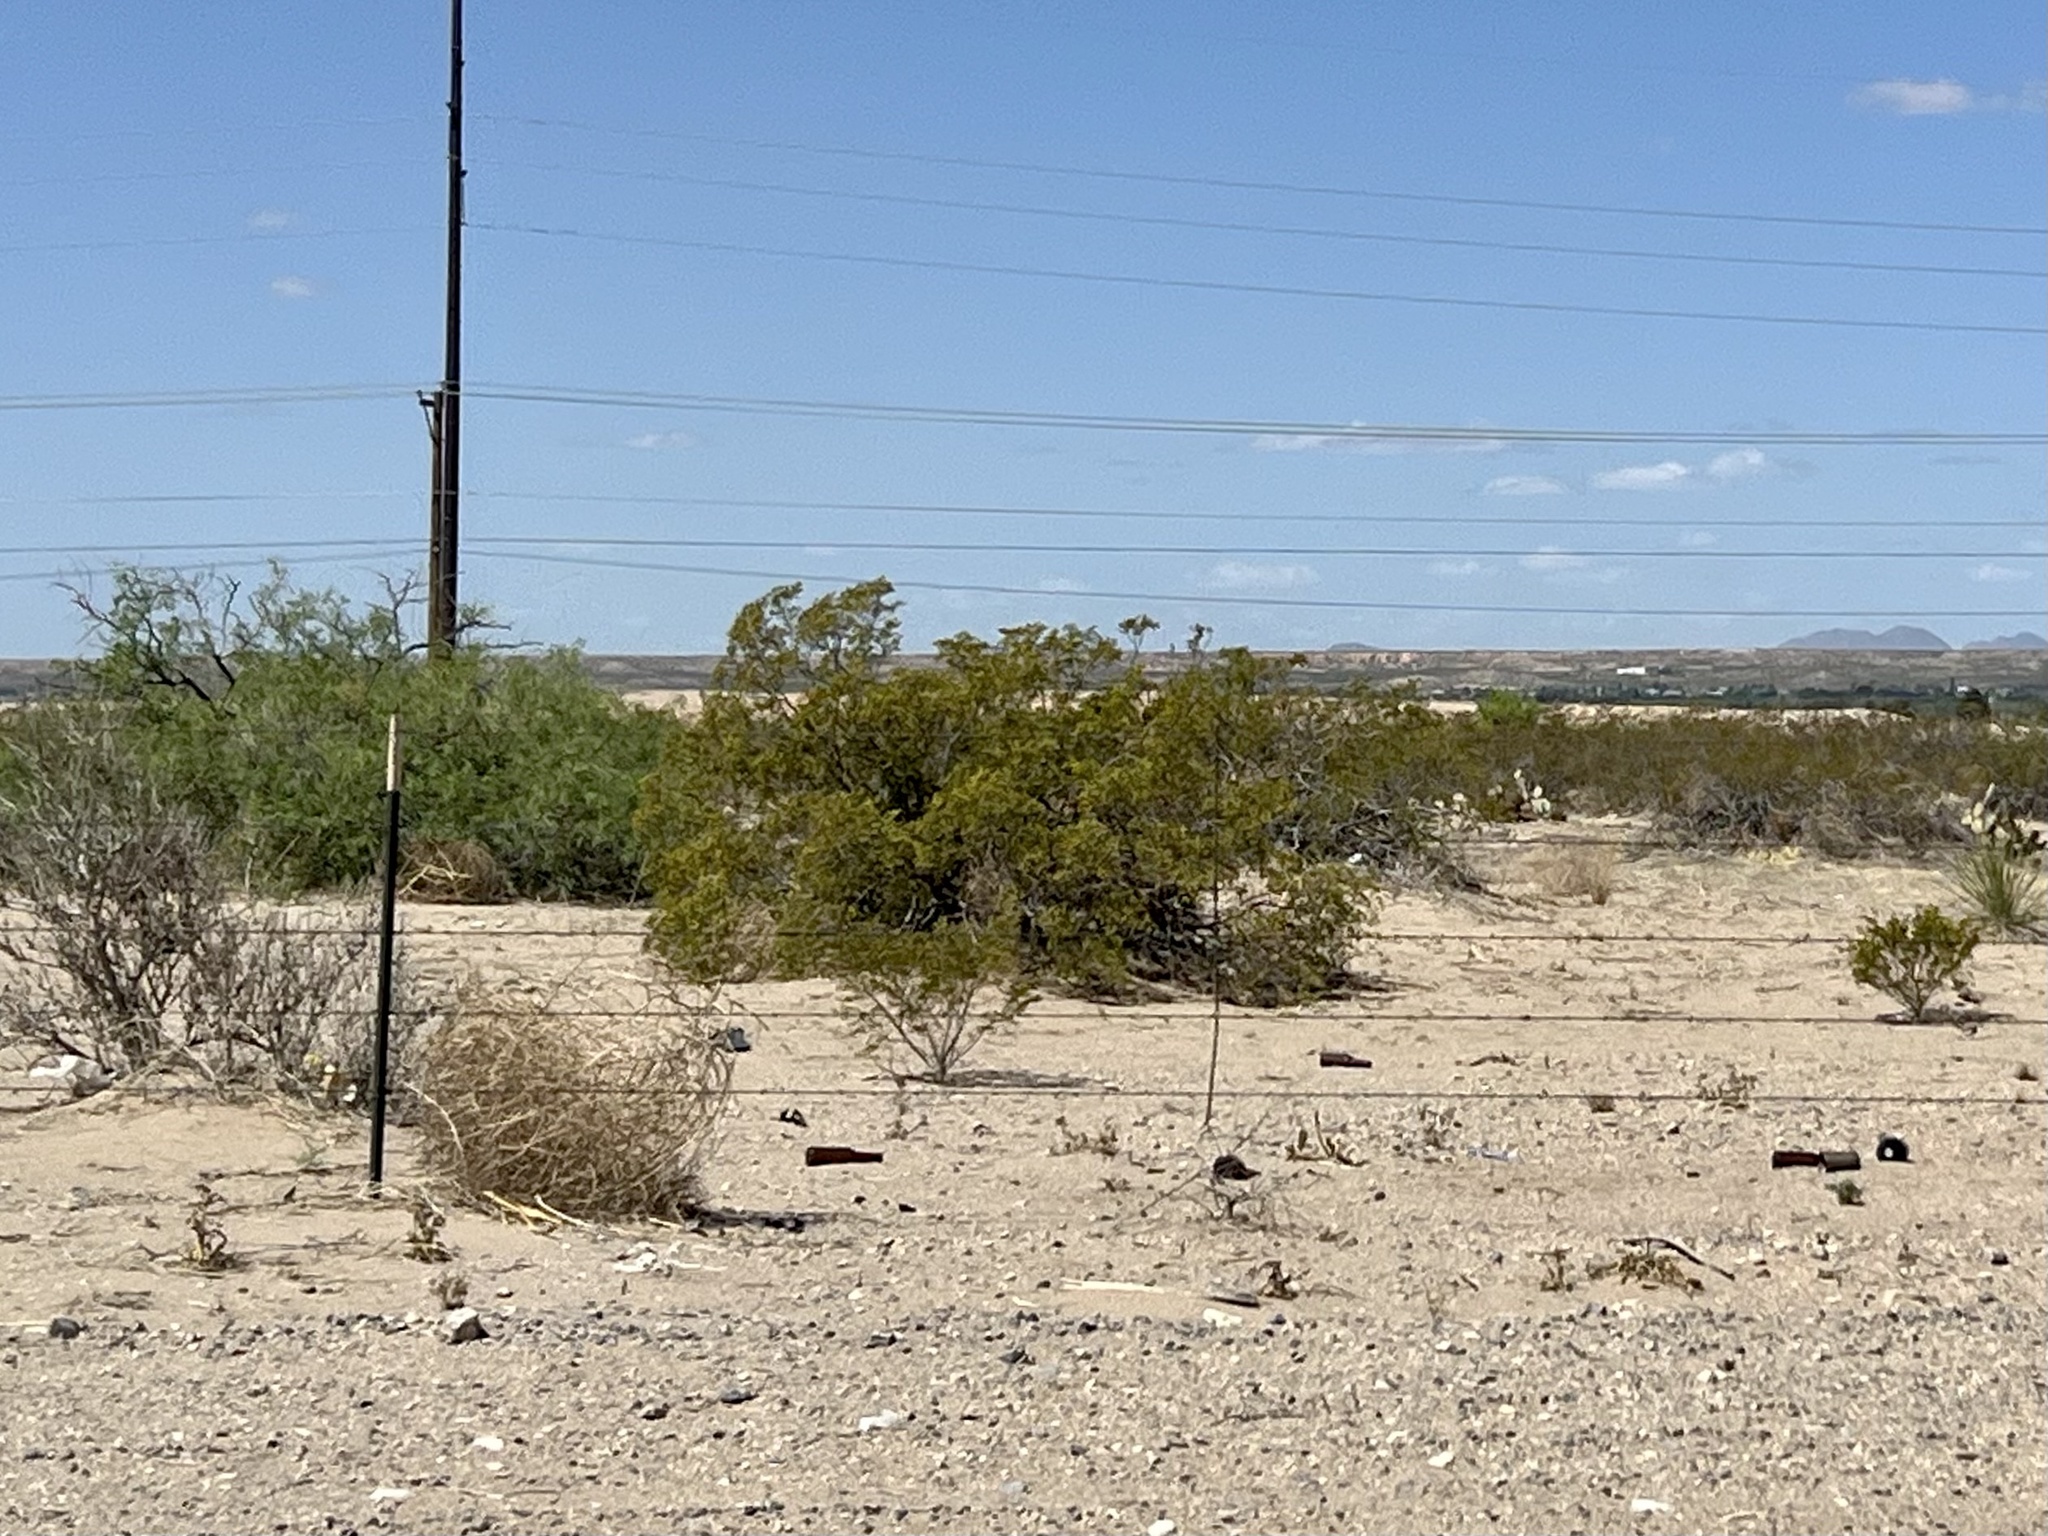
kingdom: Plantae
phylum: Tracheophyta
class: Magnoliopsida
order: Zygophyllales
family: Zygophyllaceae
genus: Larrea
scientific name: Larrea tridentata
